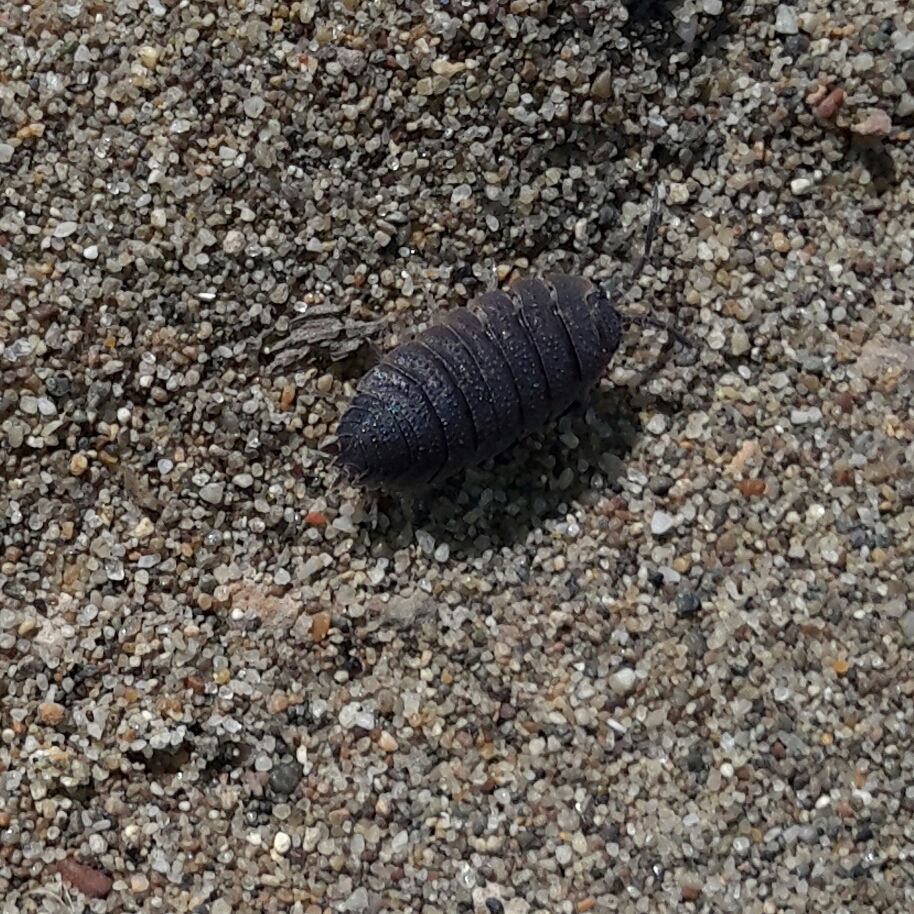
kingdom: Animalia
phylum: Arthropoda
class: Malacostraca
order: Isopoda
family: Porcellionidae
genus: Porcellio
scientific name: Porcellio scaber
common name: Common rough woodlouse
